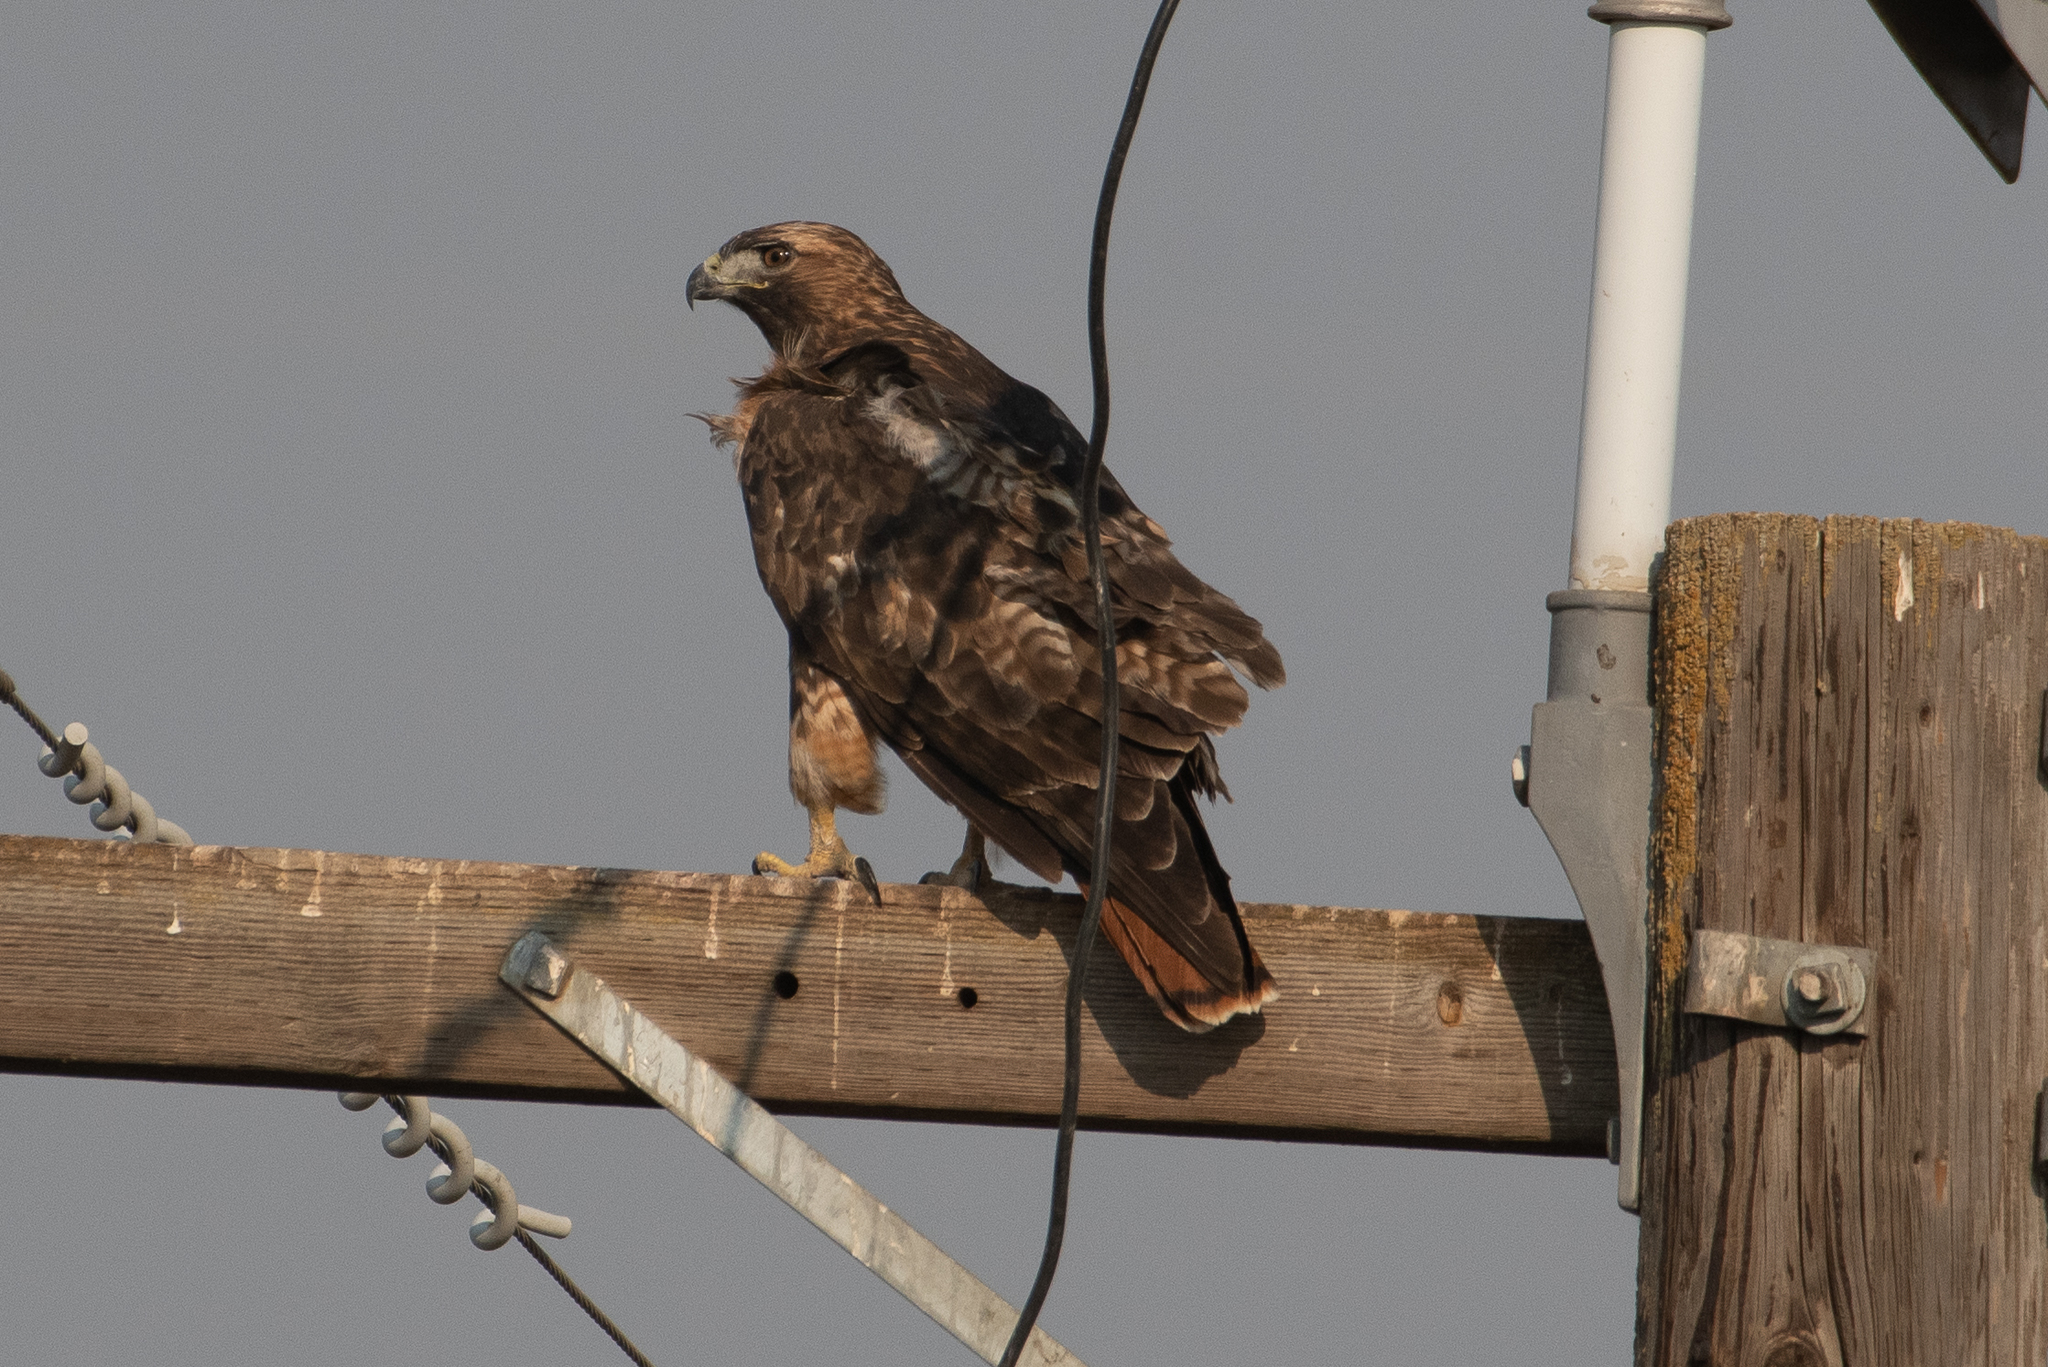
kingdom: Animalia
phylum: Chordata
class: Aves
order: Accipitriformes
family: Accipitridae
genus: Buteo
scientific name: Buteo jamaicensis
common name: Red-tailed hawk
